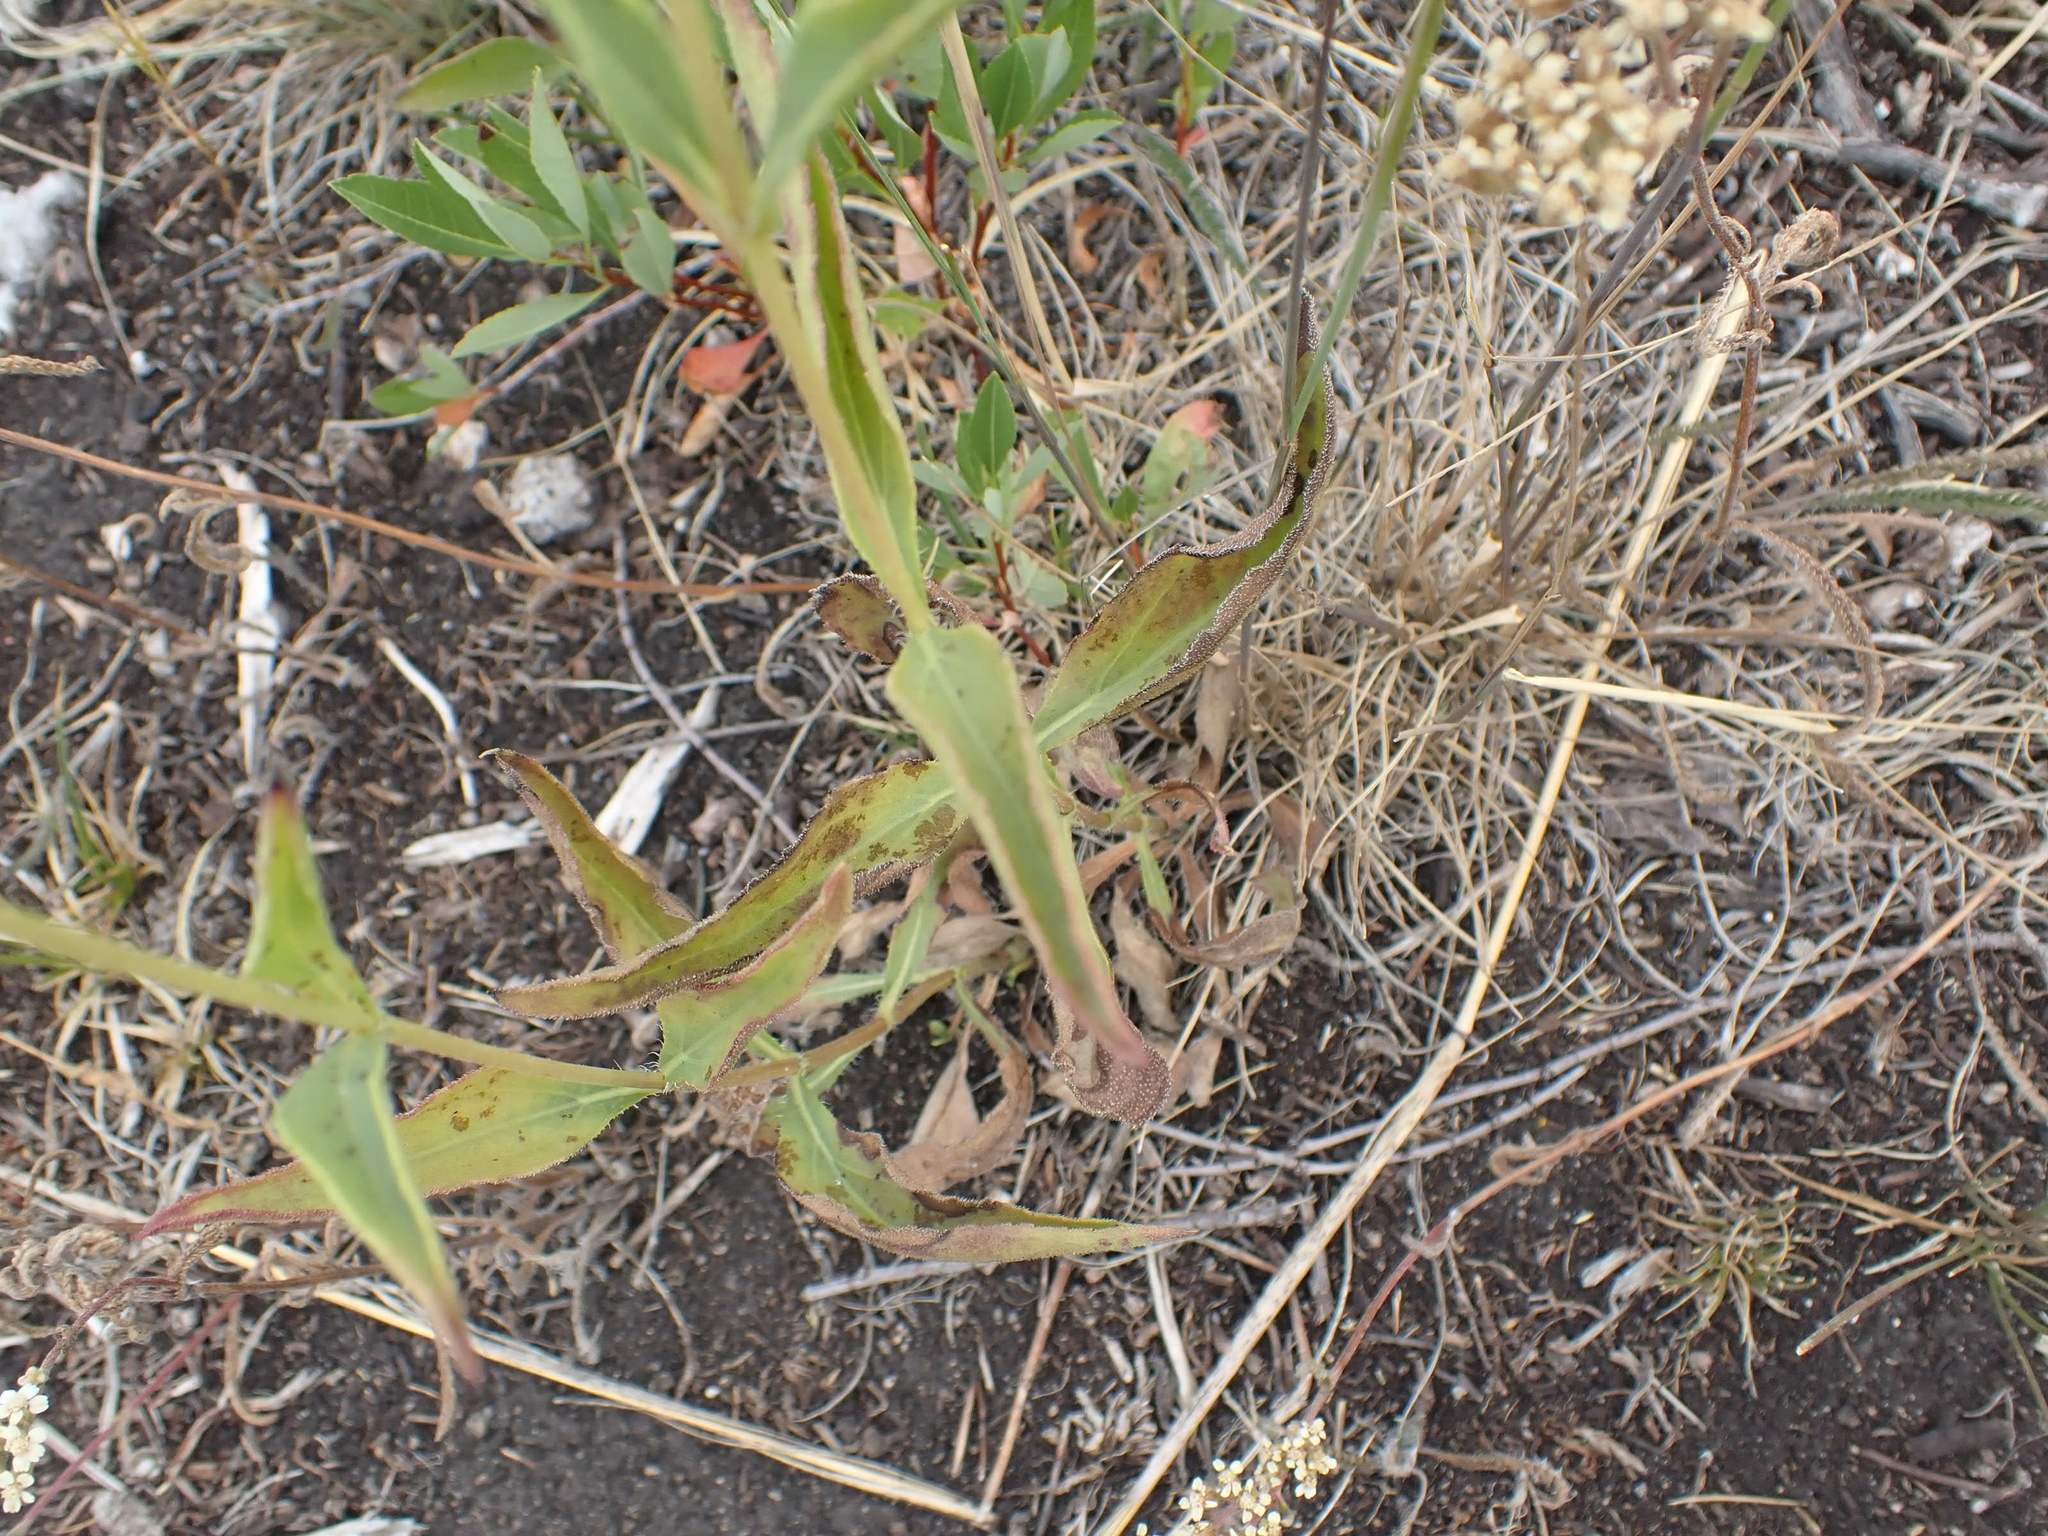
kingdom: Plantae
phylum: Tracheophyta
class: Magnoliopsida
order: Asterales
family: Asteraceae
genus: Helianthus
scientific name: Helianthus pauciflorus
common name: Stiff sunflower
